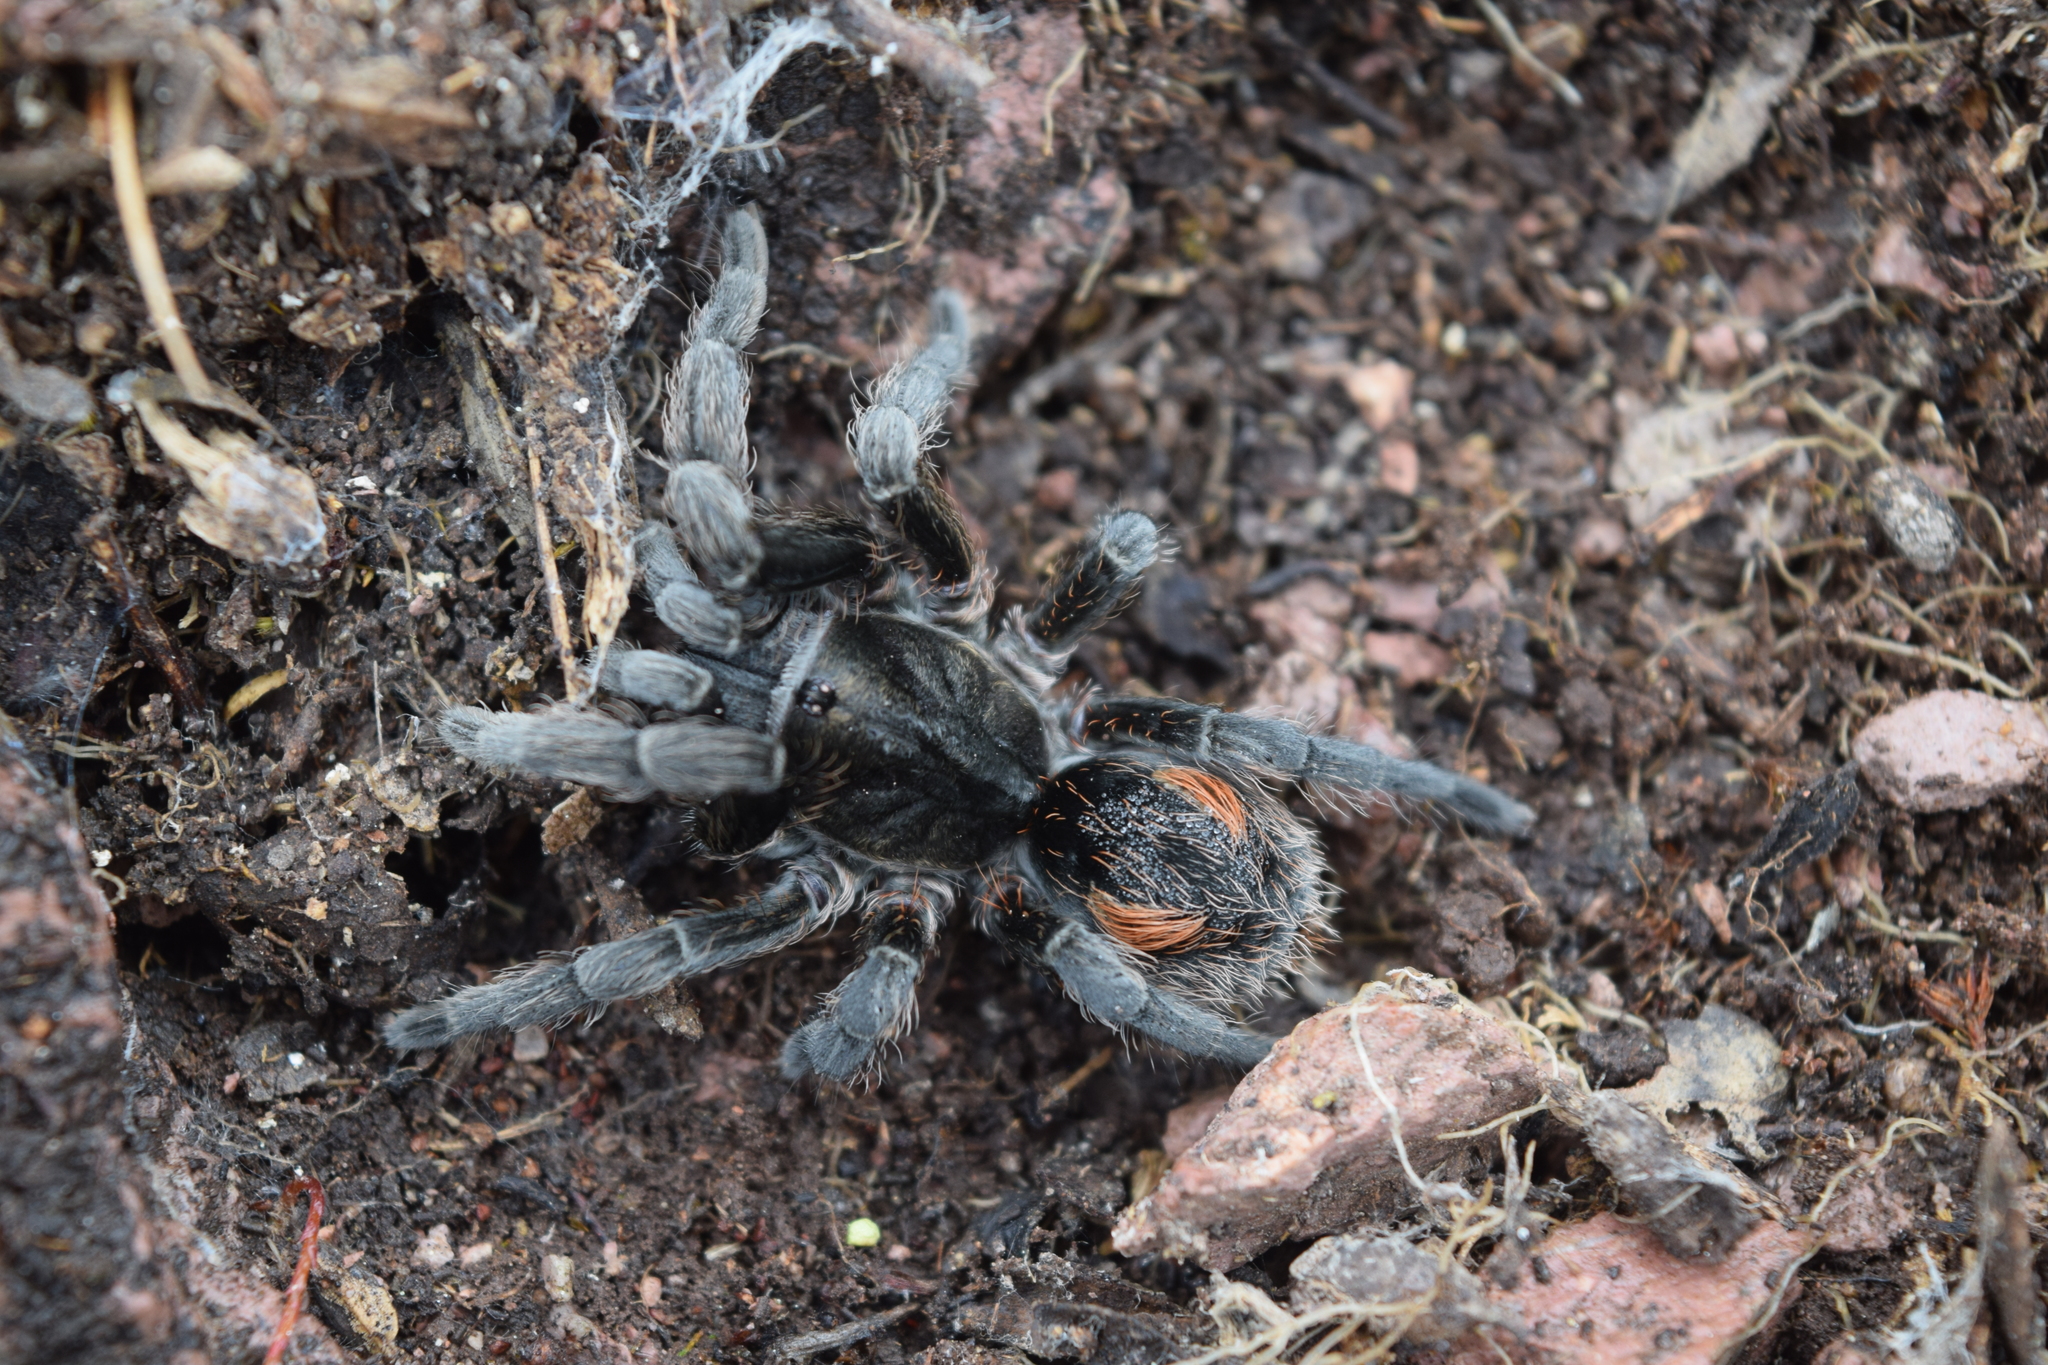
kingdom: Animalia
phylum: Arthropoda
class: Arachnida
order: Araneae
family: Theraphosidae
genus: Bistriopelma
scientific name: Bistriopelma matuskai
